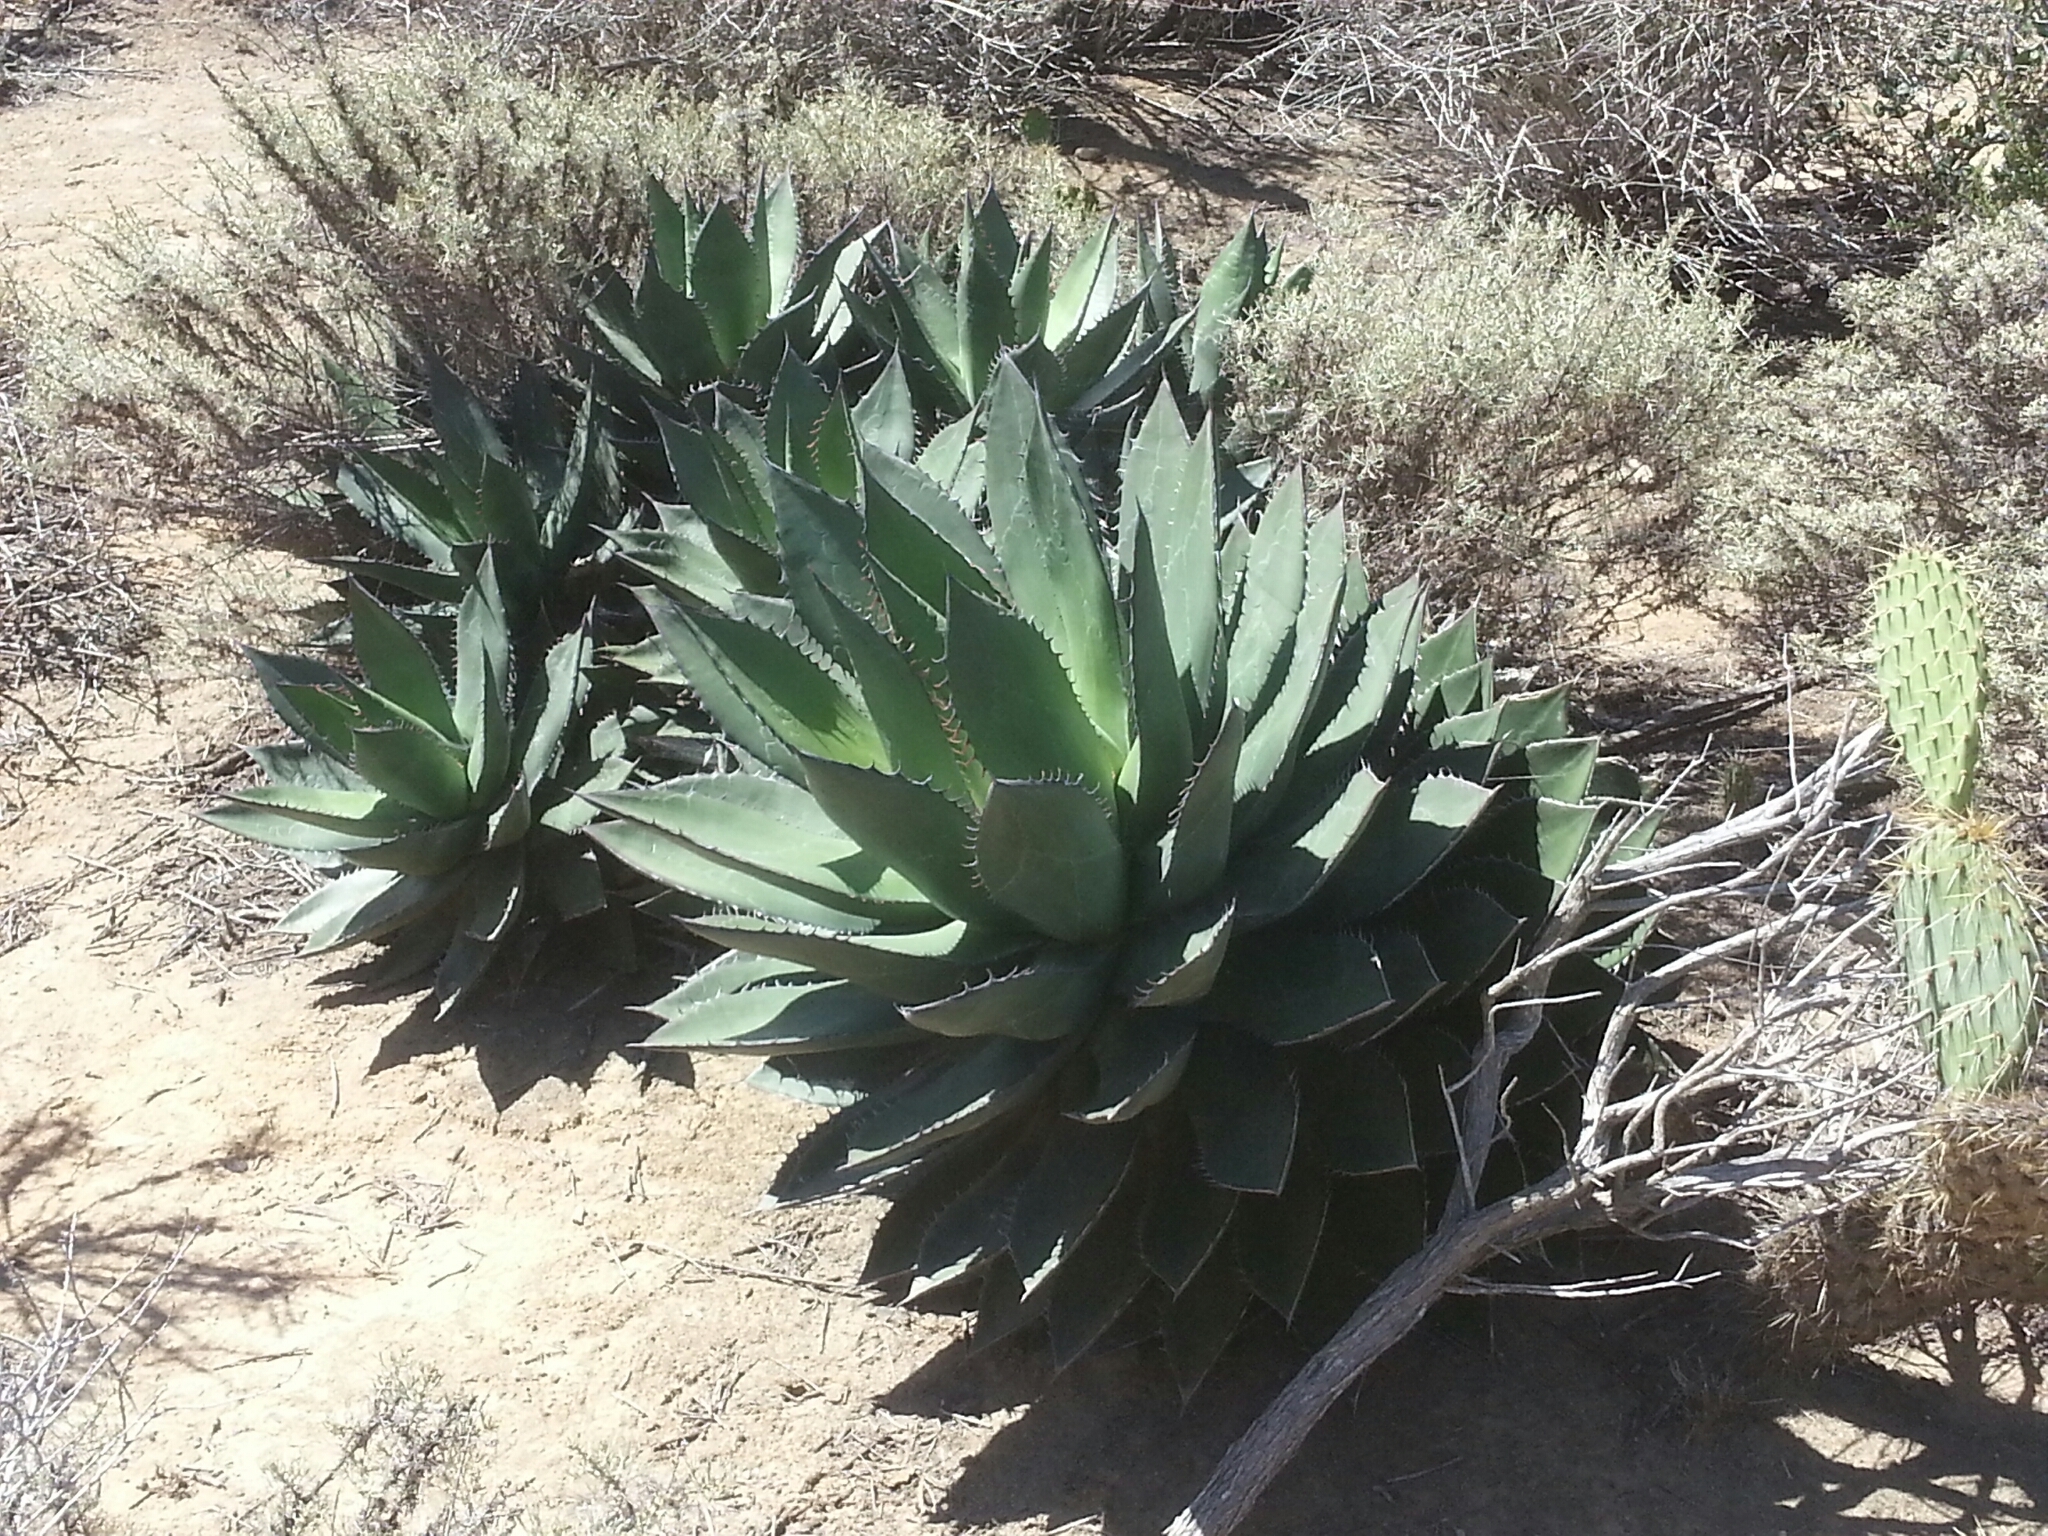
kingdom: Plantae
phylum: Tracheophyta
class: Liliopsida
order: Asparagales
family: Asparagaceae
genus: Agave
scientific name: Agave shawii
